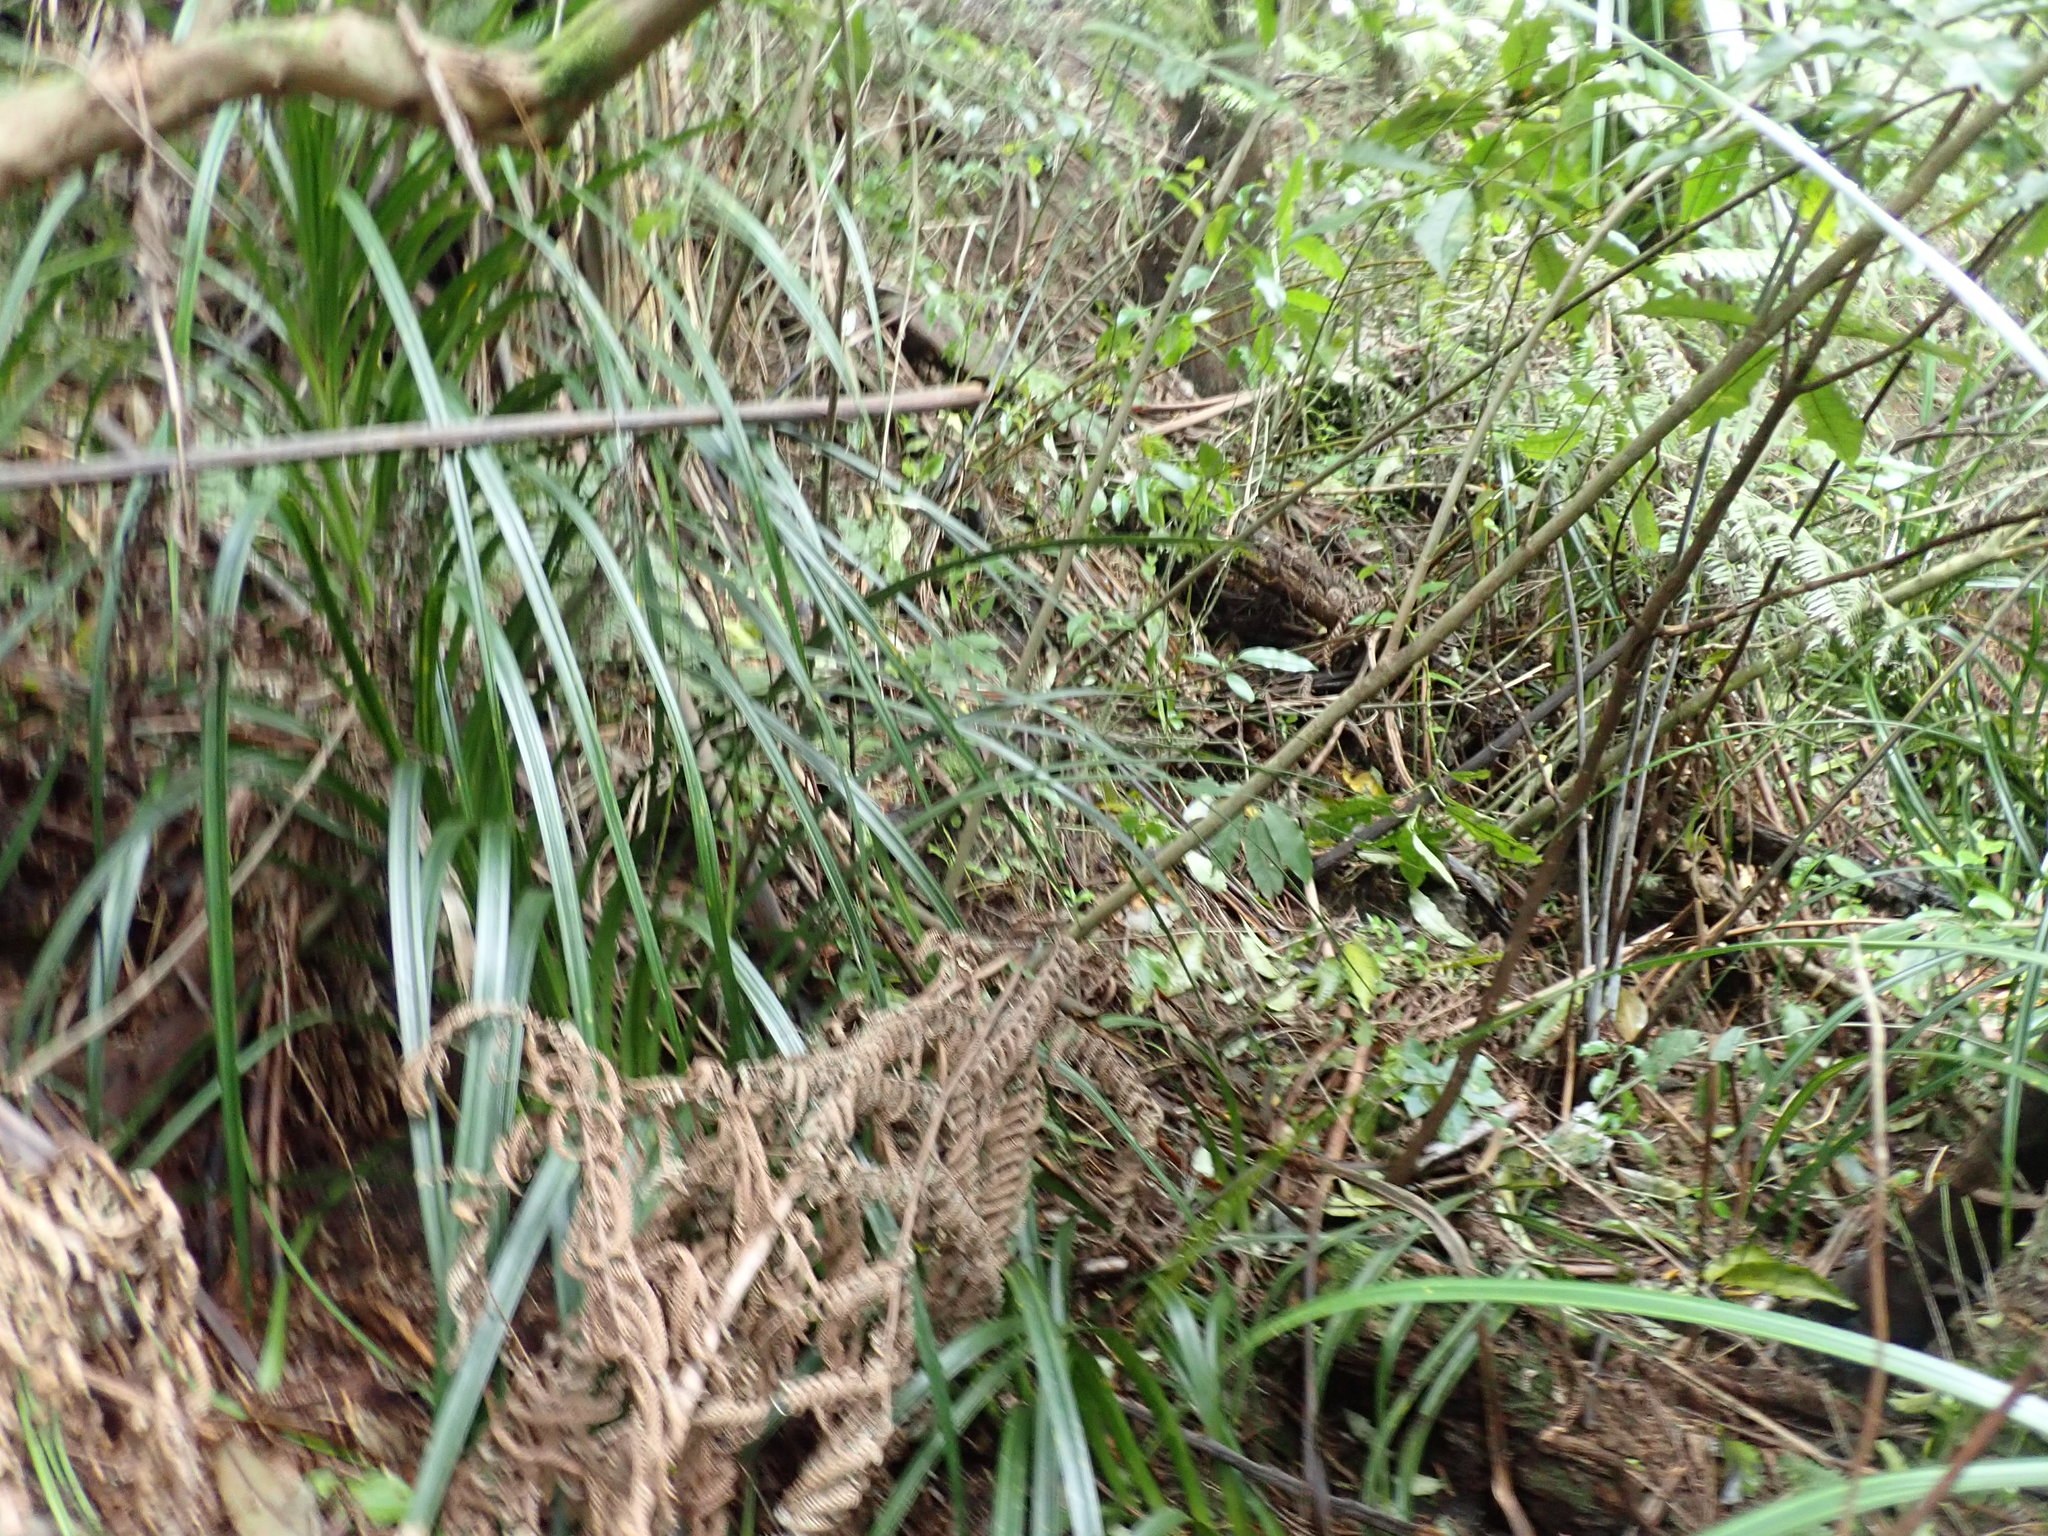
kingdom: Plantae
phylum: Tracheophyta
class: Liliopsida
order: Pandanales
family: Pandanaceae
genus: Freycinetia
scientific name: Freycinetia banksii
